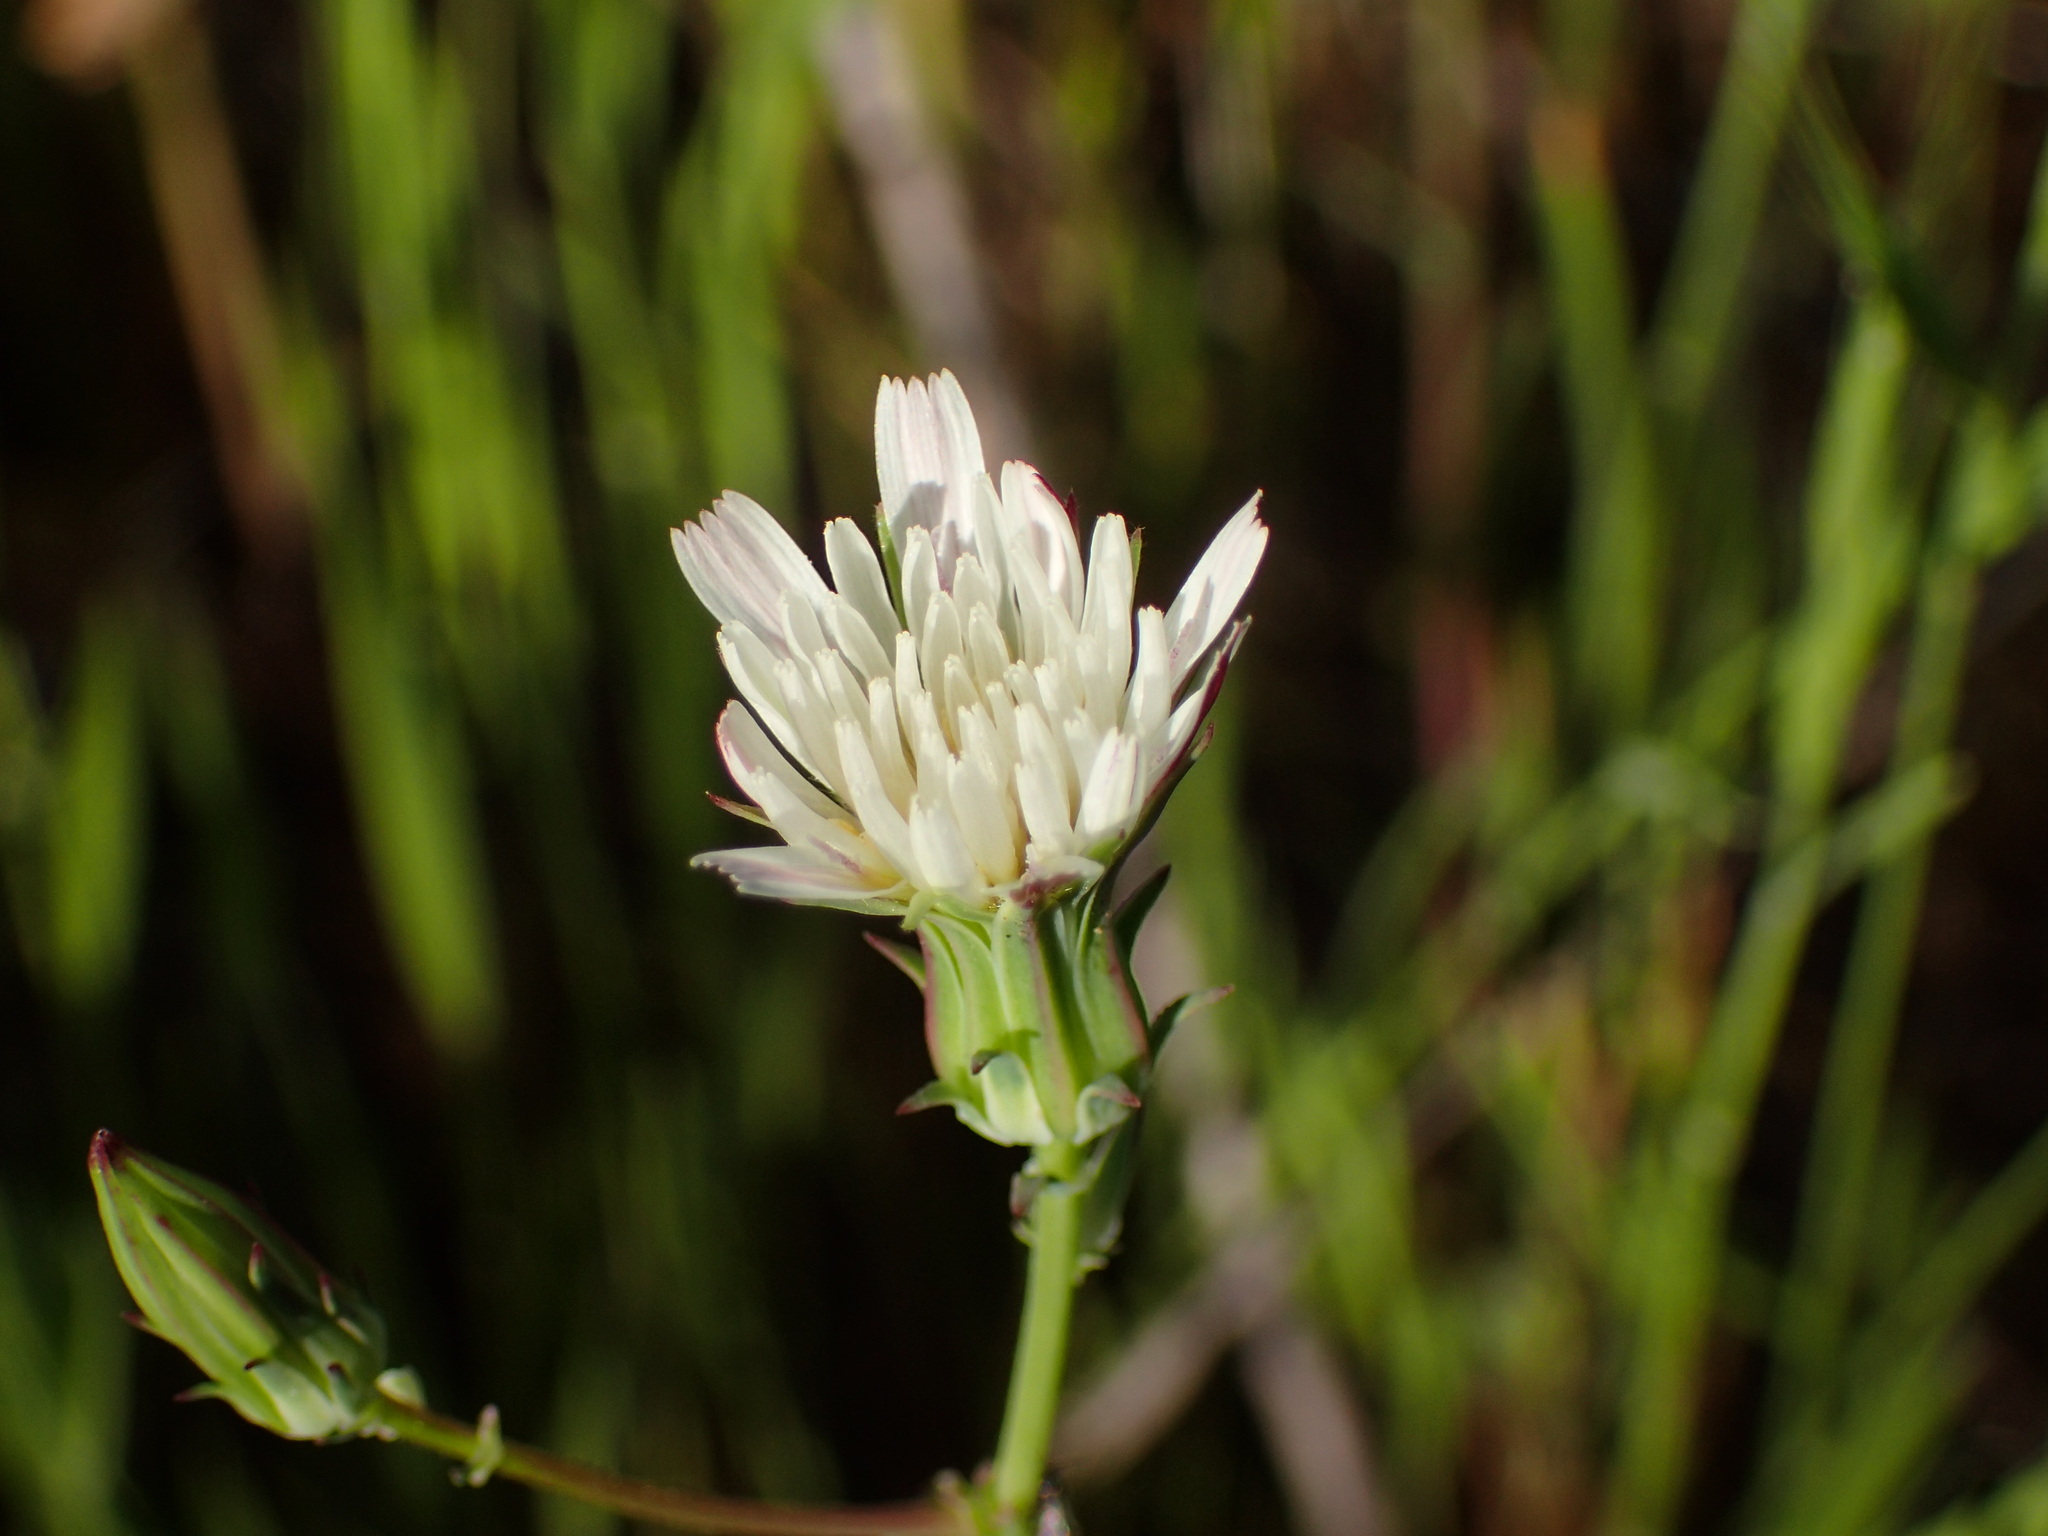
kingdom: Plantae
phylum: Tracheophyta
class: Magnoliopsida
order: Asterales
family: Asteraceae
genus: Rafinesquia
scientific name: Rafinesquia californica
